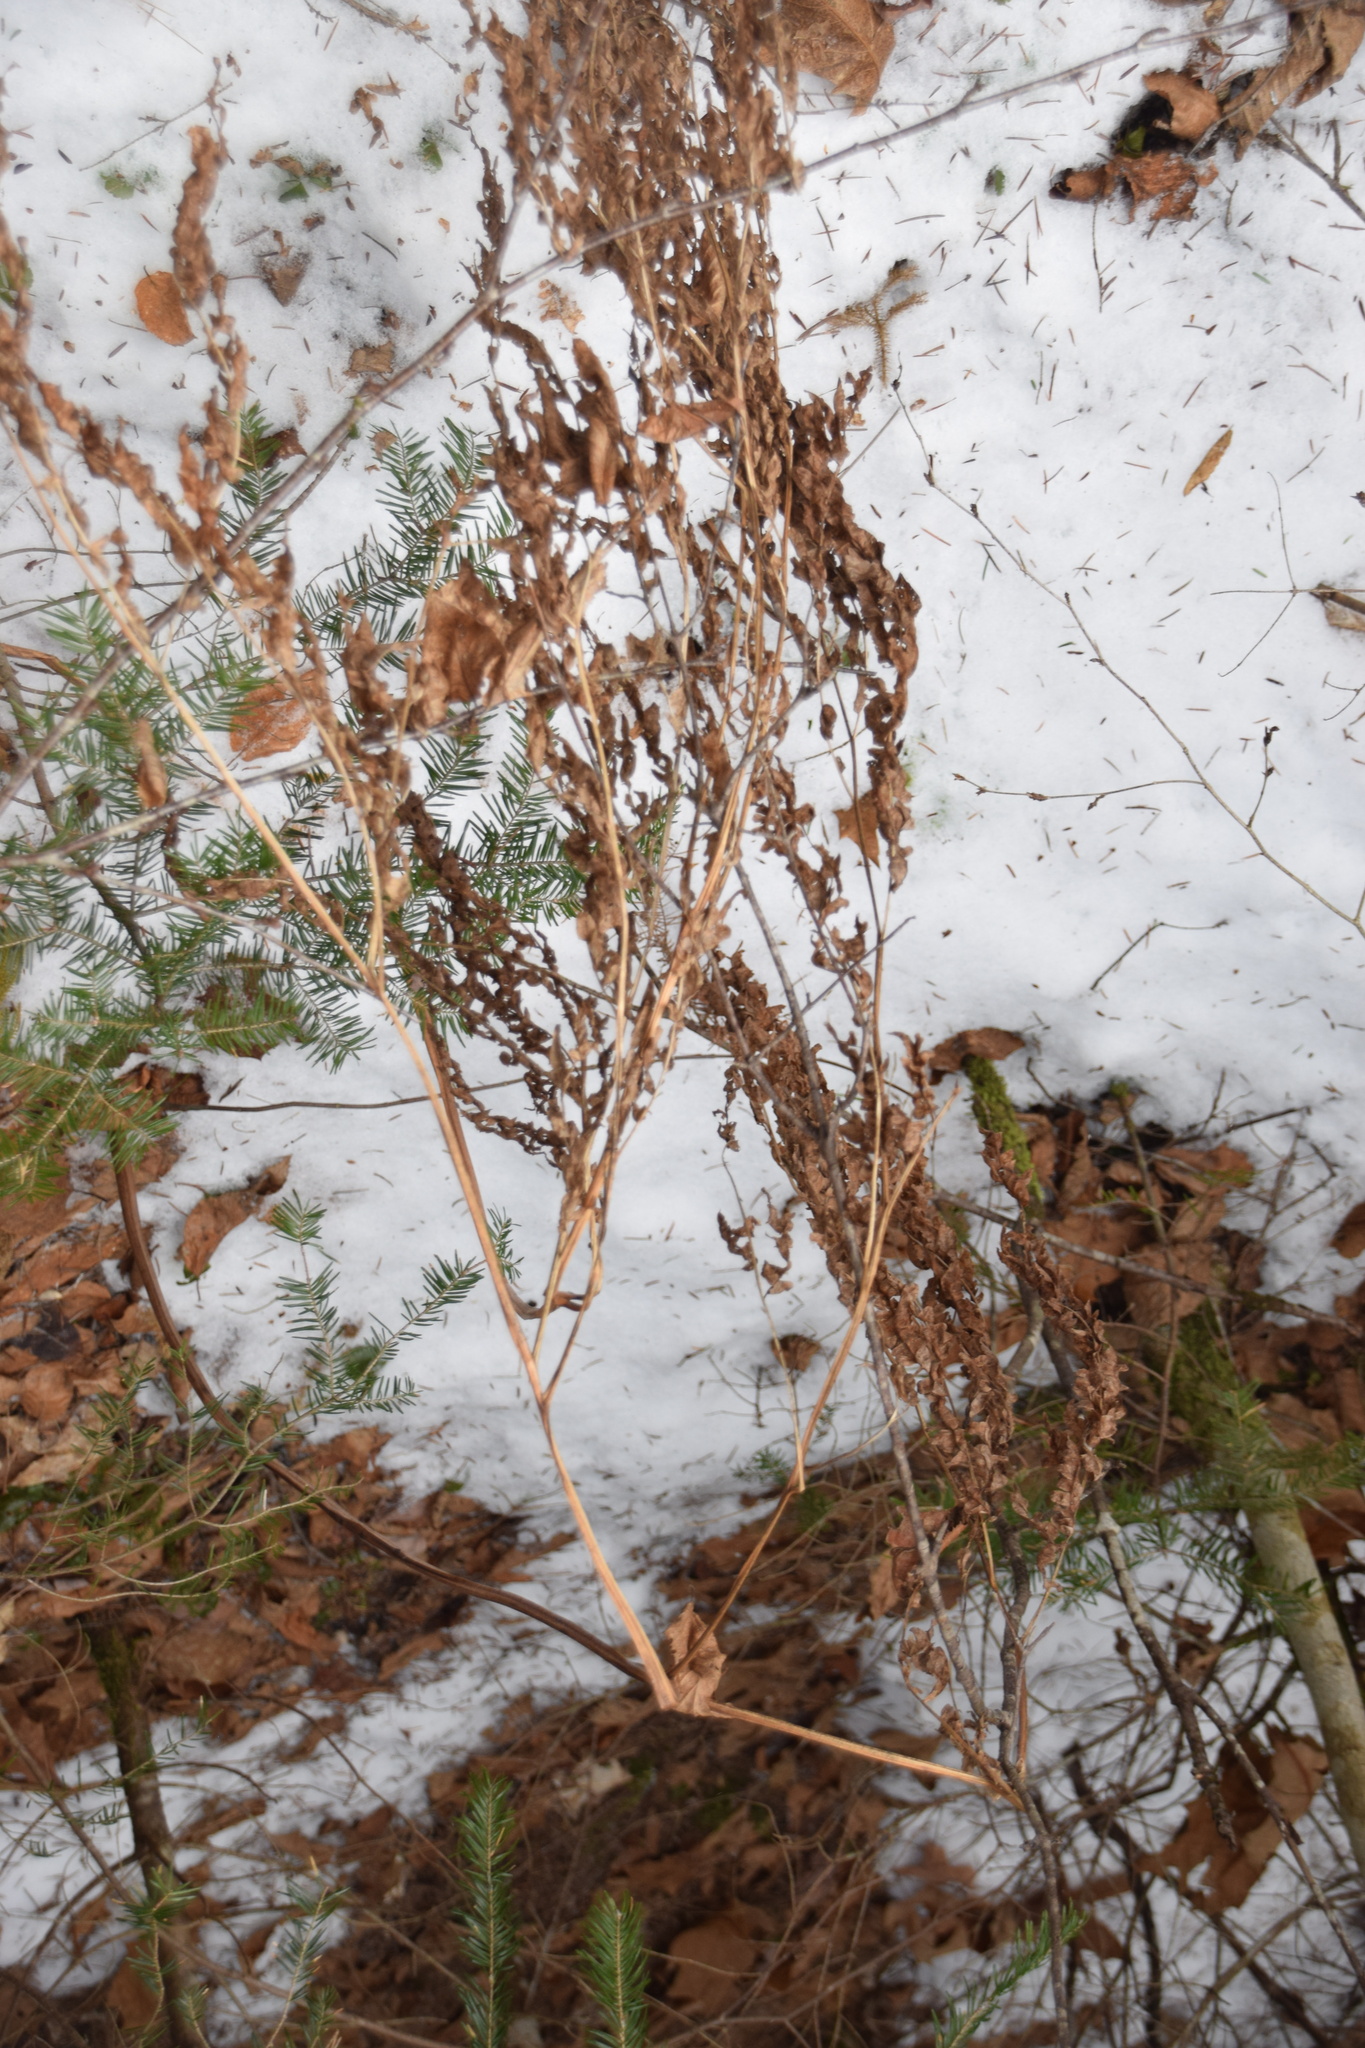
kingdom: Plantae
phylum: Tracheophyta
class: Polypodiopsida
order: Polypodiales
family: Dennstaedtiaceae
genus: Pteridium
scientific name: Pteridium aquilinum
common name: Bracken
